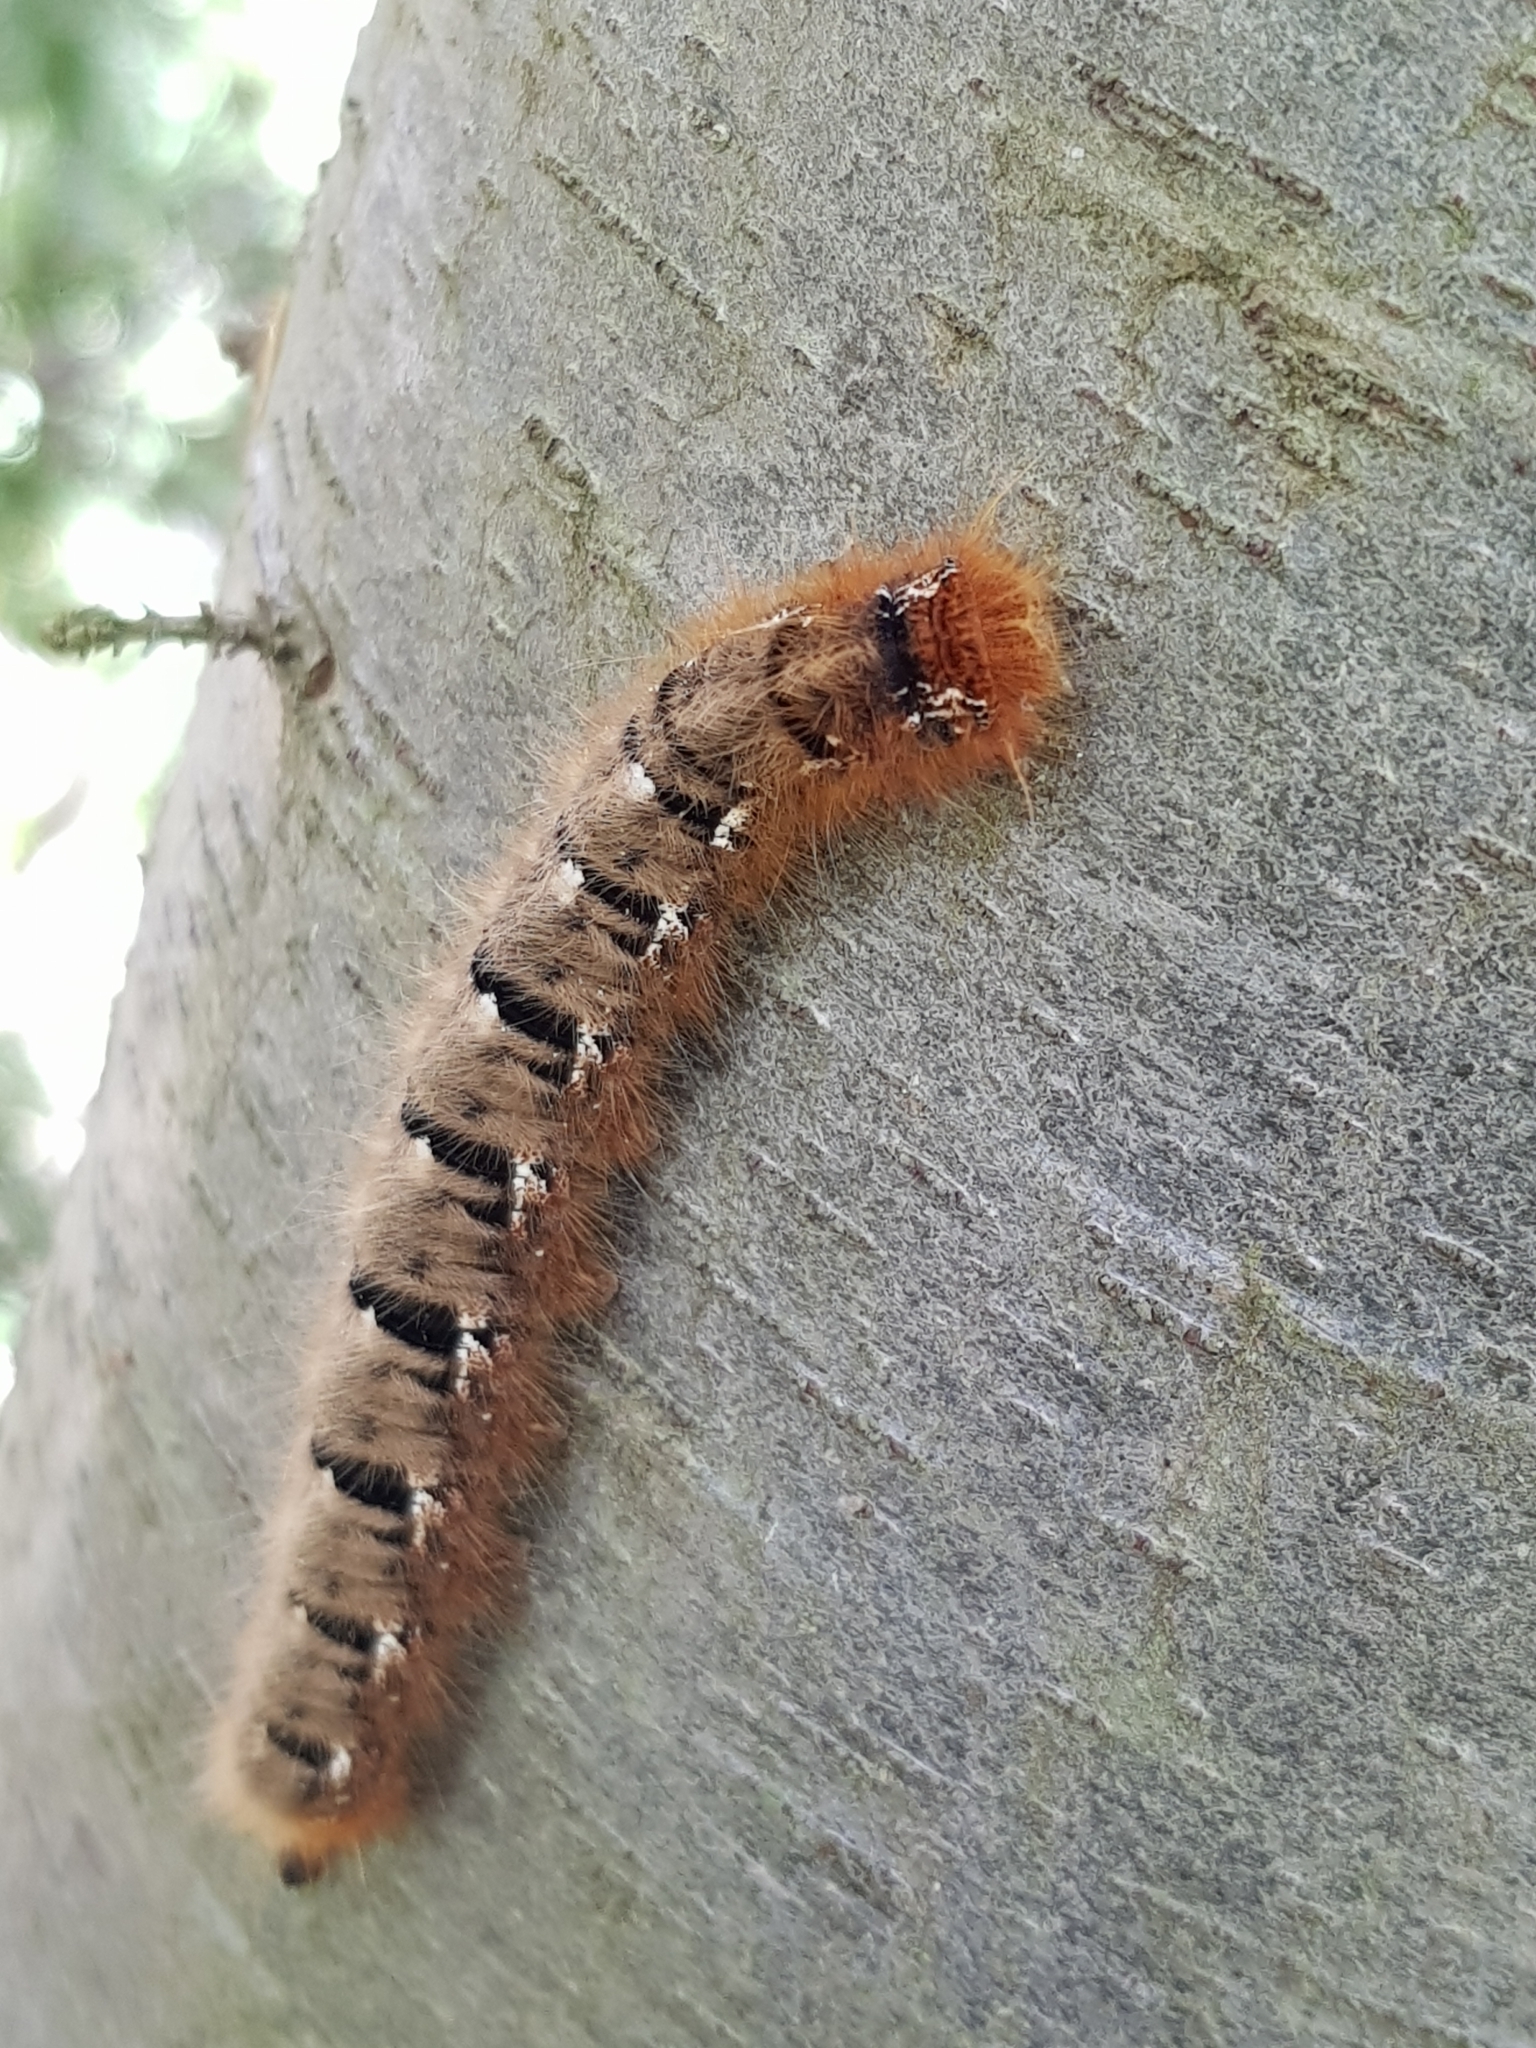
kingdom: Animalia
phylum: Arthropoda
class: Insecta
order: Lepidoptera
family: Lasiocampidae
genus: Lasiocampa
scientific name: Lasiocampa quercus
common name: Oak eggar
